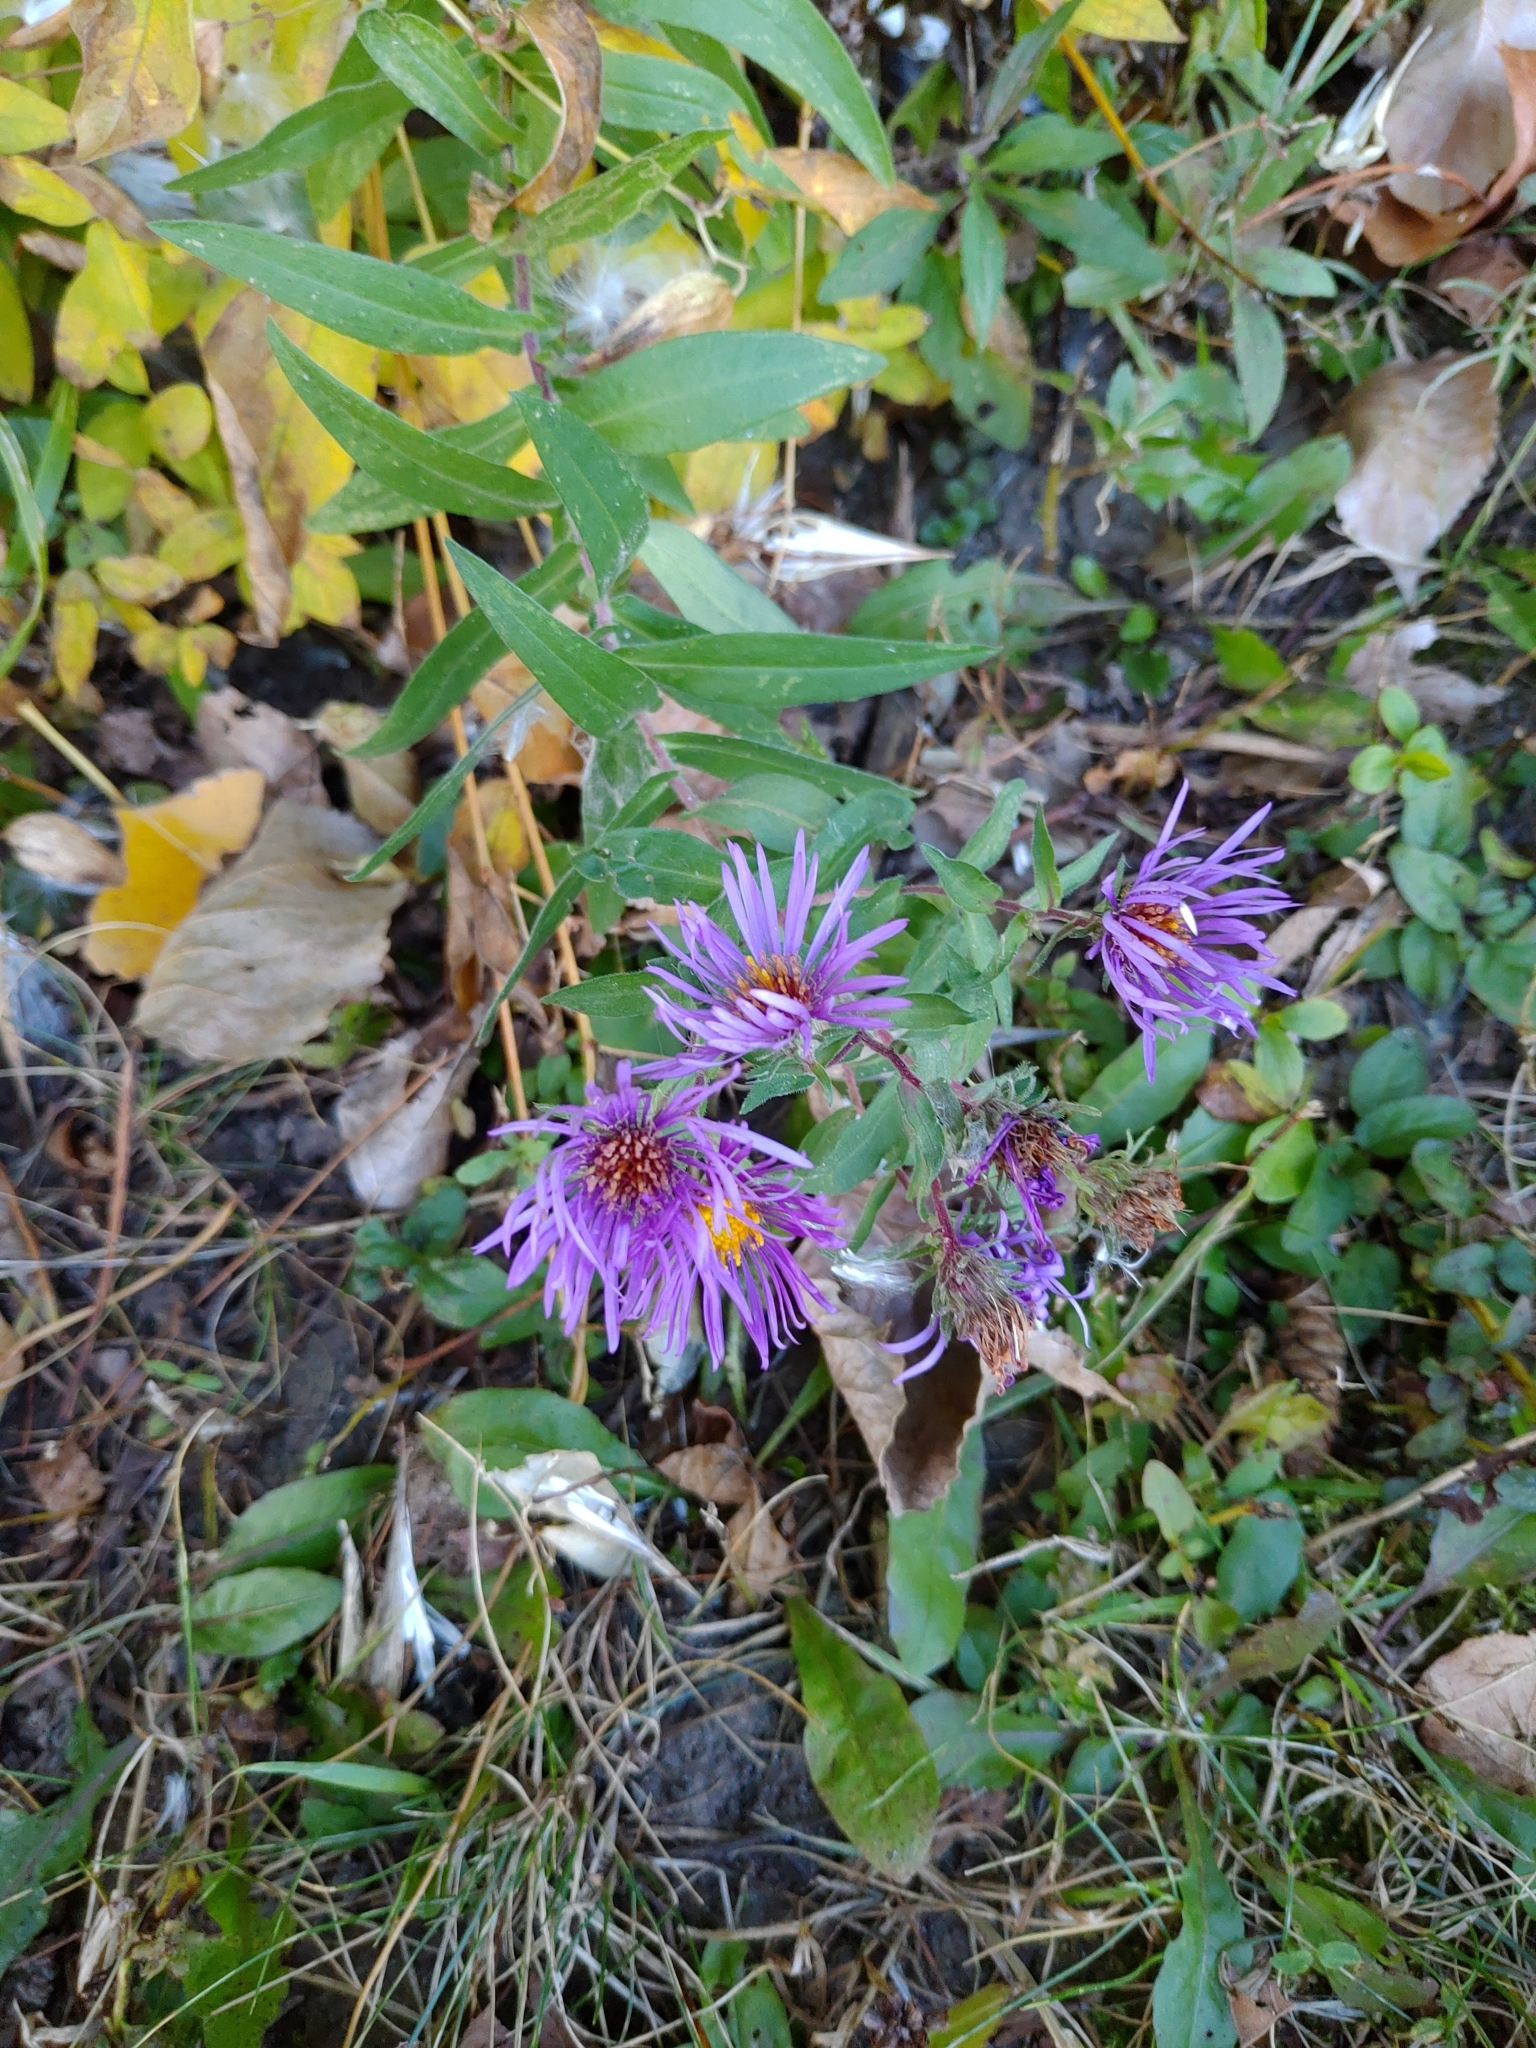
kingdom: Plantae
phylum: Tracheophyta
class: Magnoliopsida
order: Asterales
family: Asteraceae
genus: Symphyotrichum
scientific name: Symphyotrichum novae-angliae
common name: Michaelmas daisy
